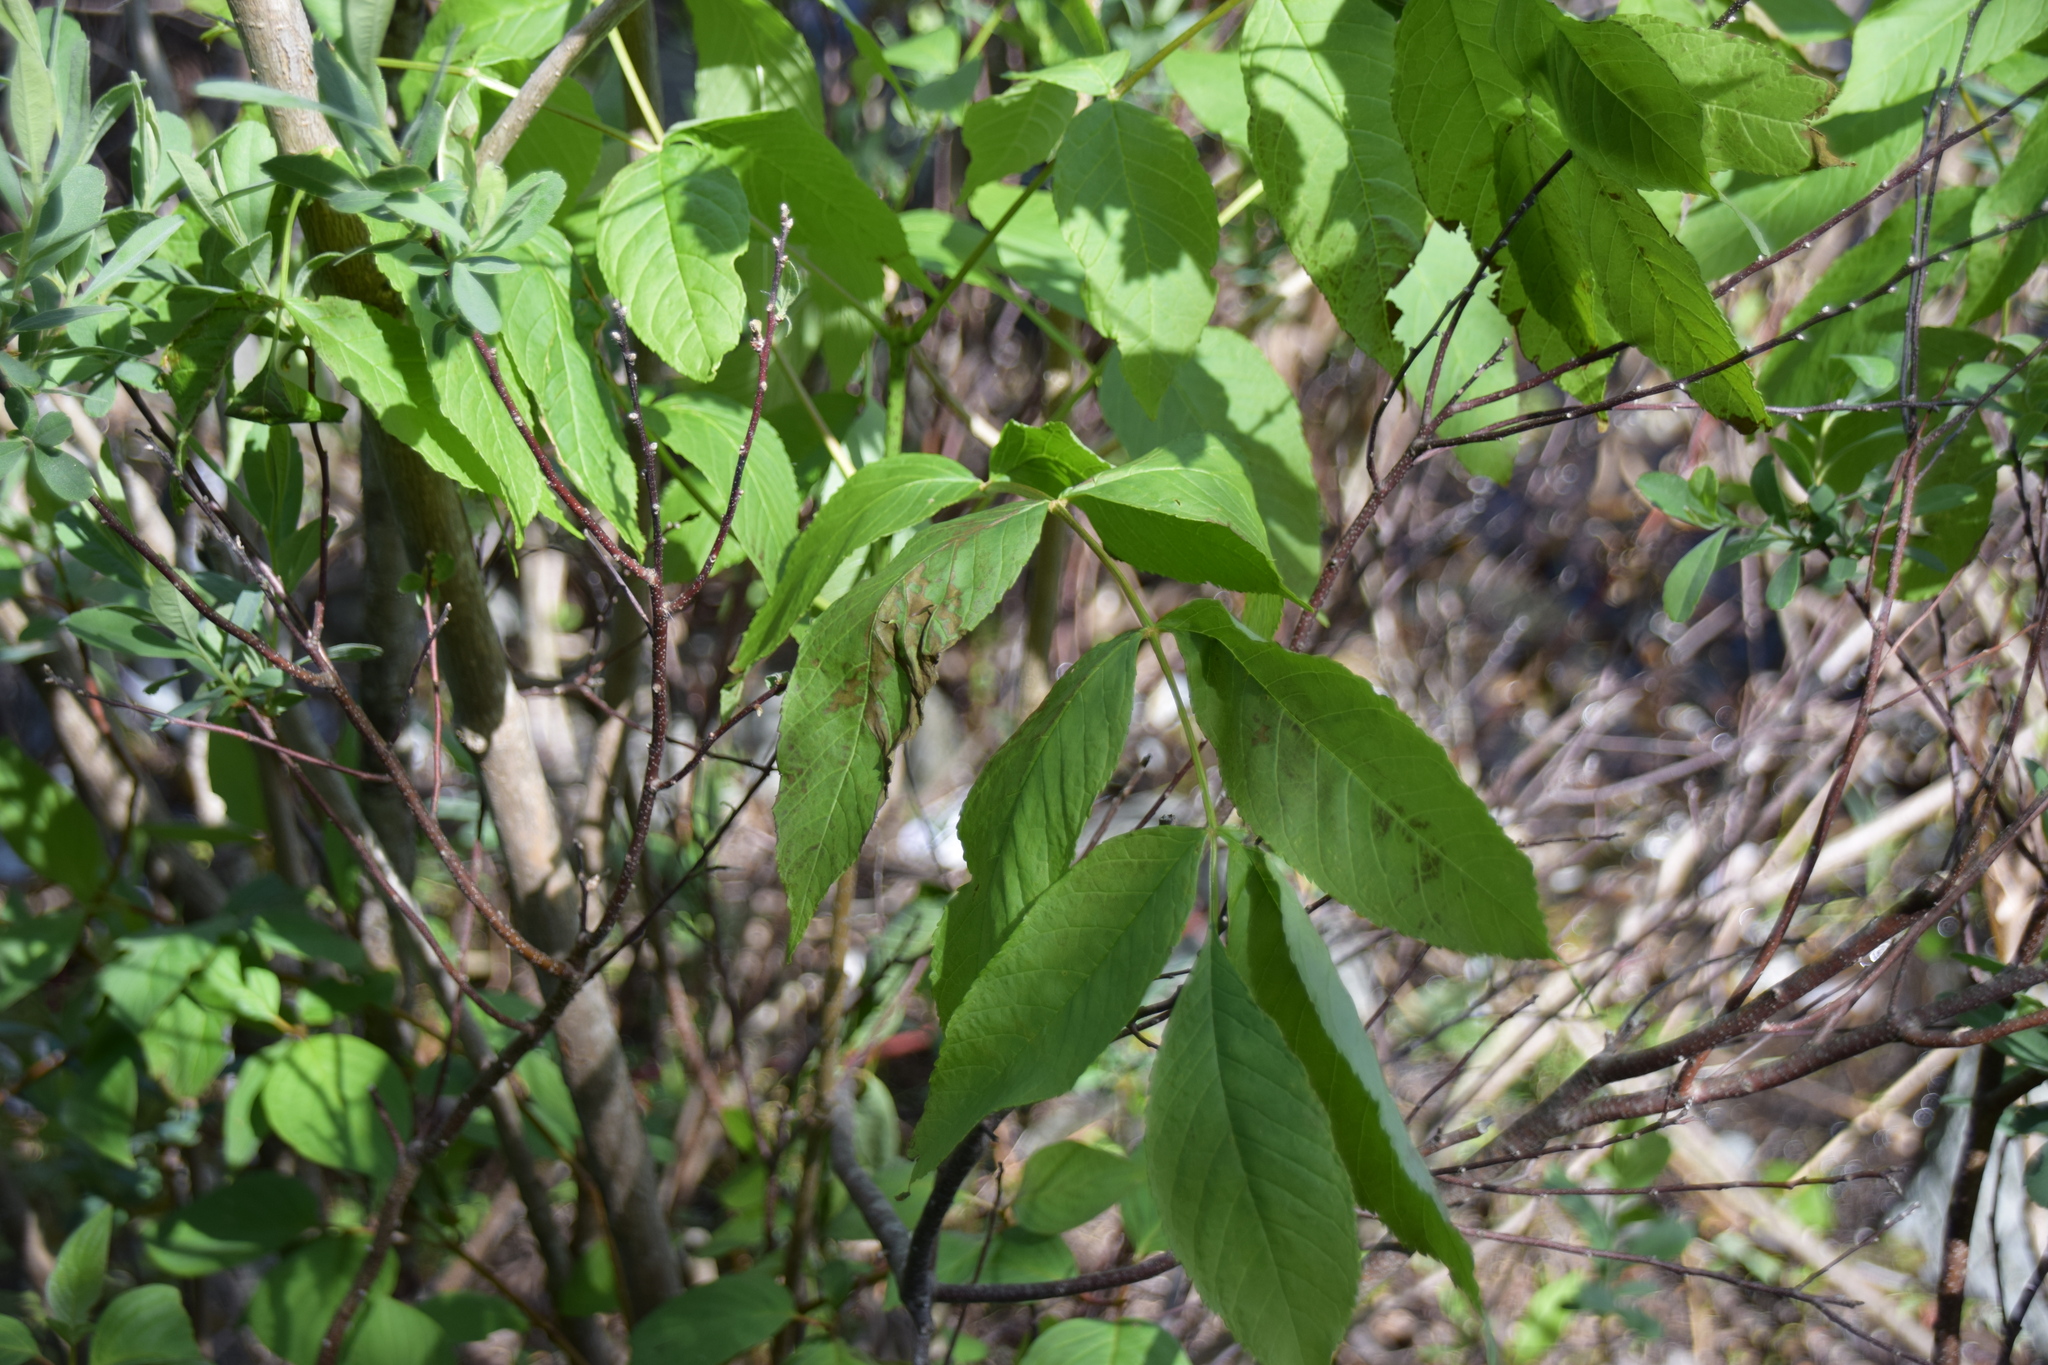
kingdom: Plantae
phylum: Tracheophyta
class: Magnoliopsida
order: Lamiales
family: Oleaceae
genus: Fraxinus
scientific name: Fraxinus nigra
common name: Black ash
